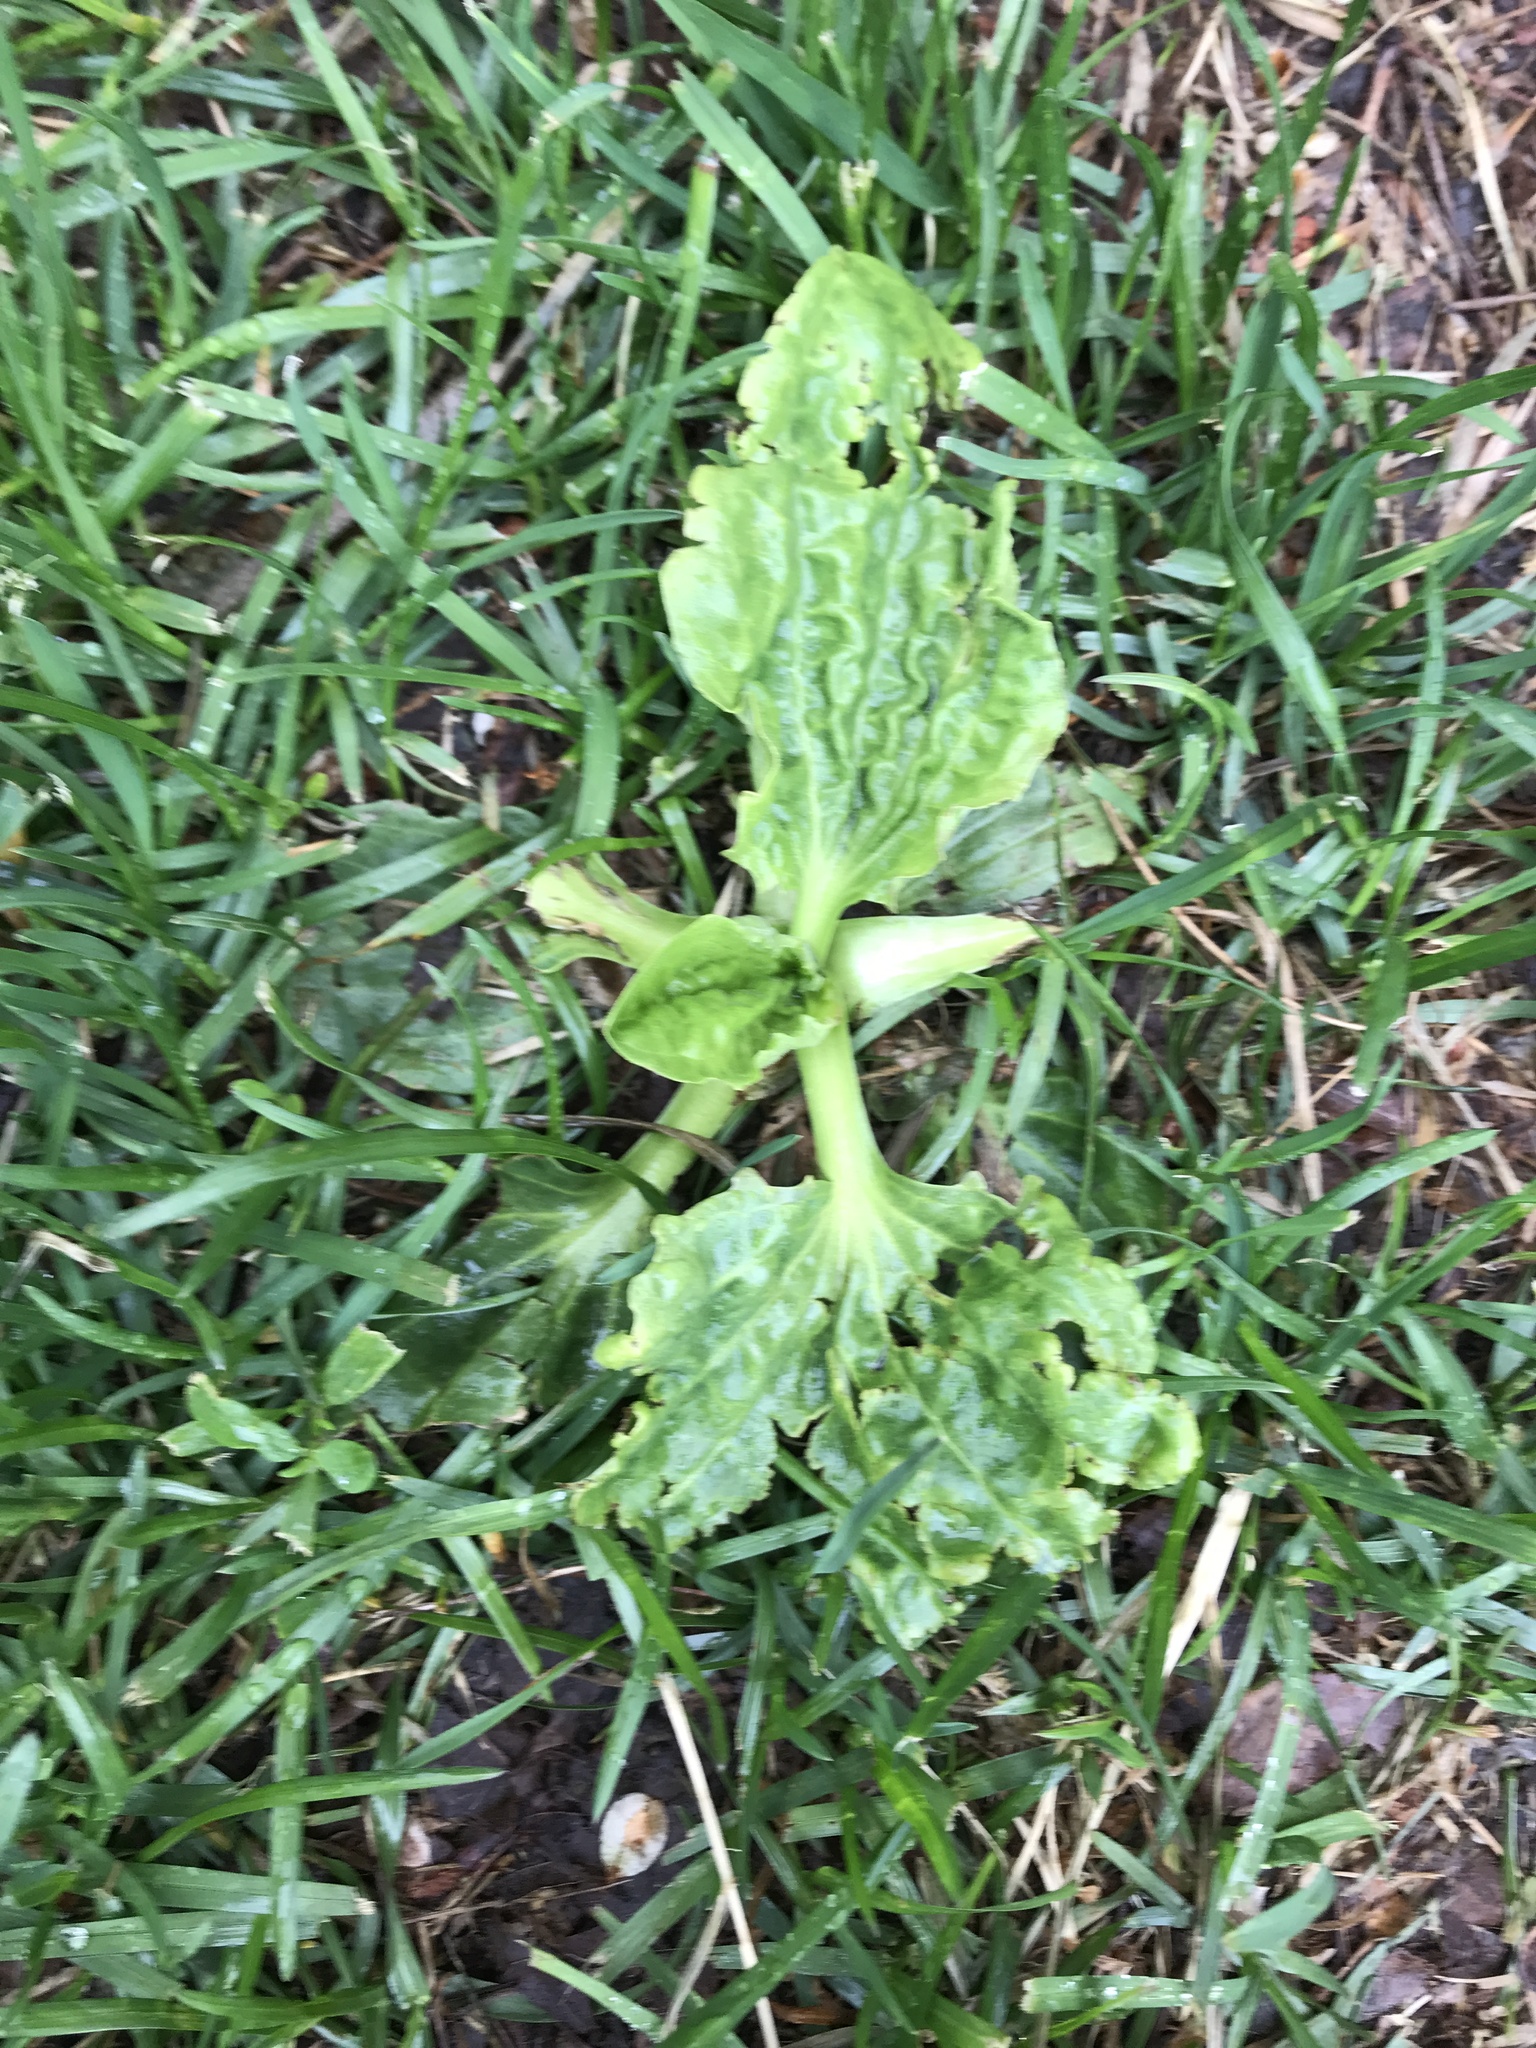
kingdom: Plantae
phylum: Tracheophyta
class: Magnoliopsida
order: Lamiales
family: Plantaginaceae
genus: Plantago
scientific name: Plantago major
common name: Common plantain
